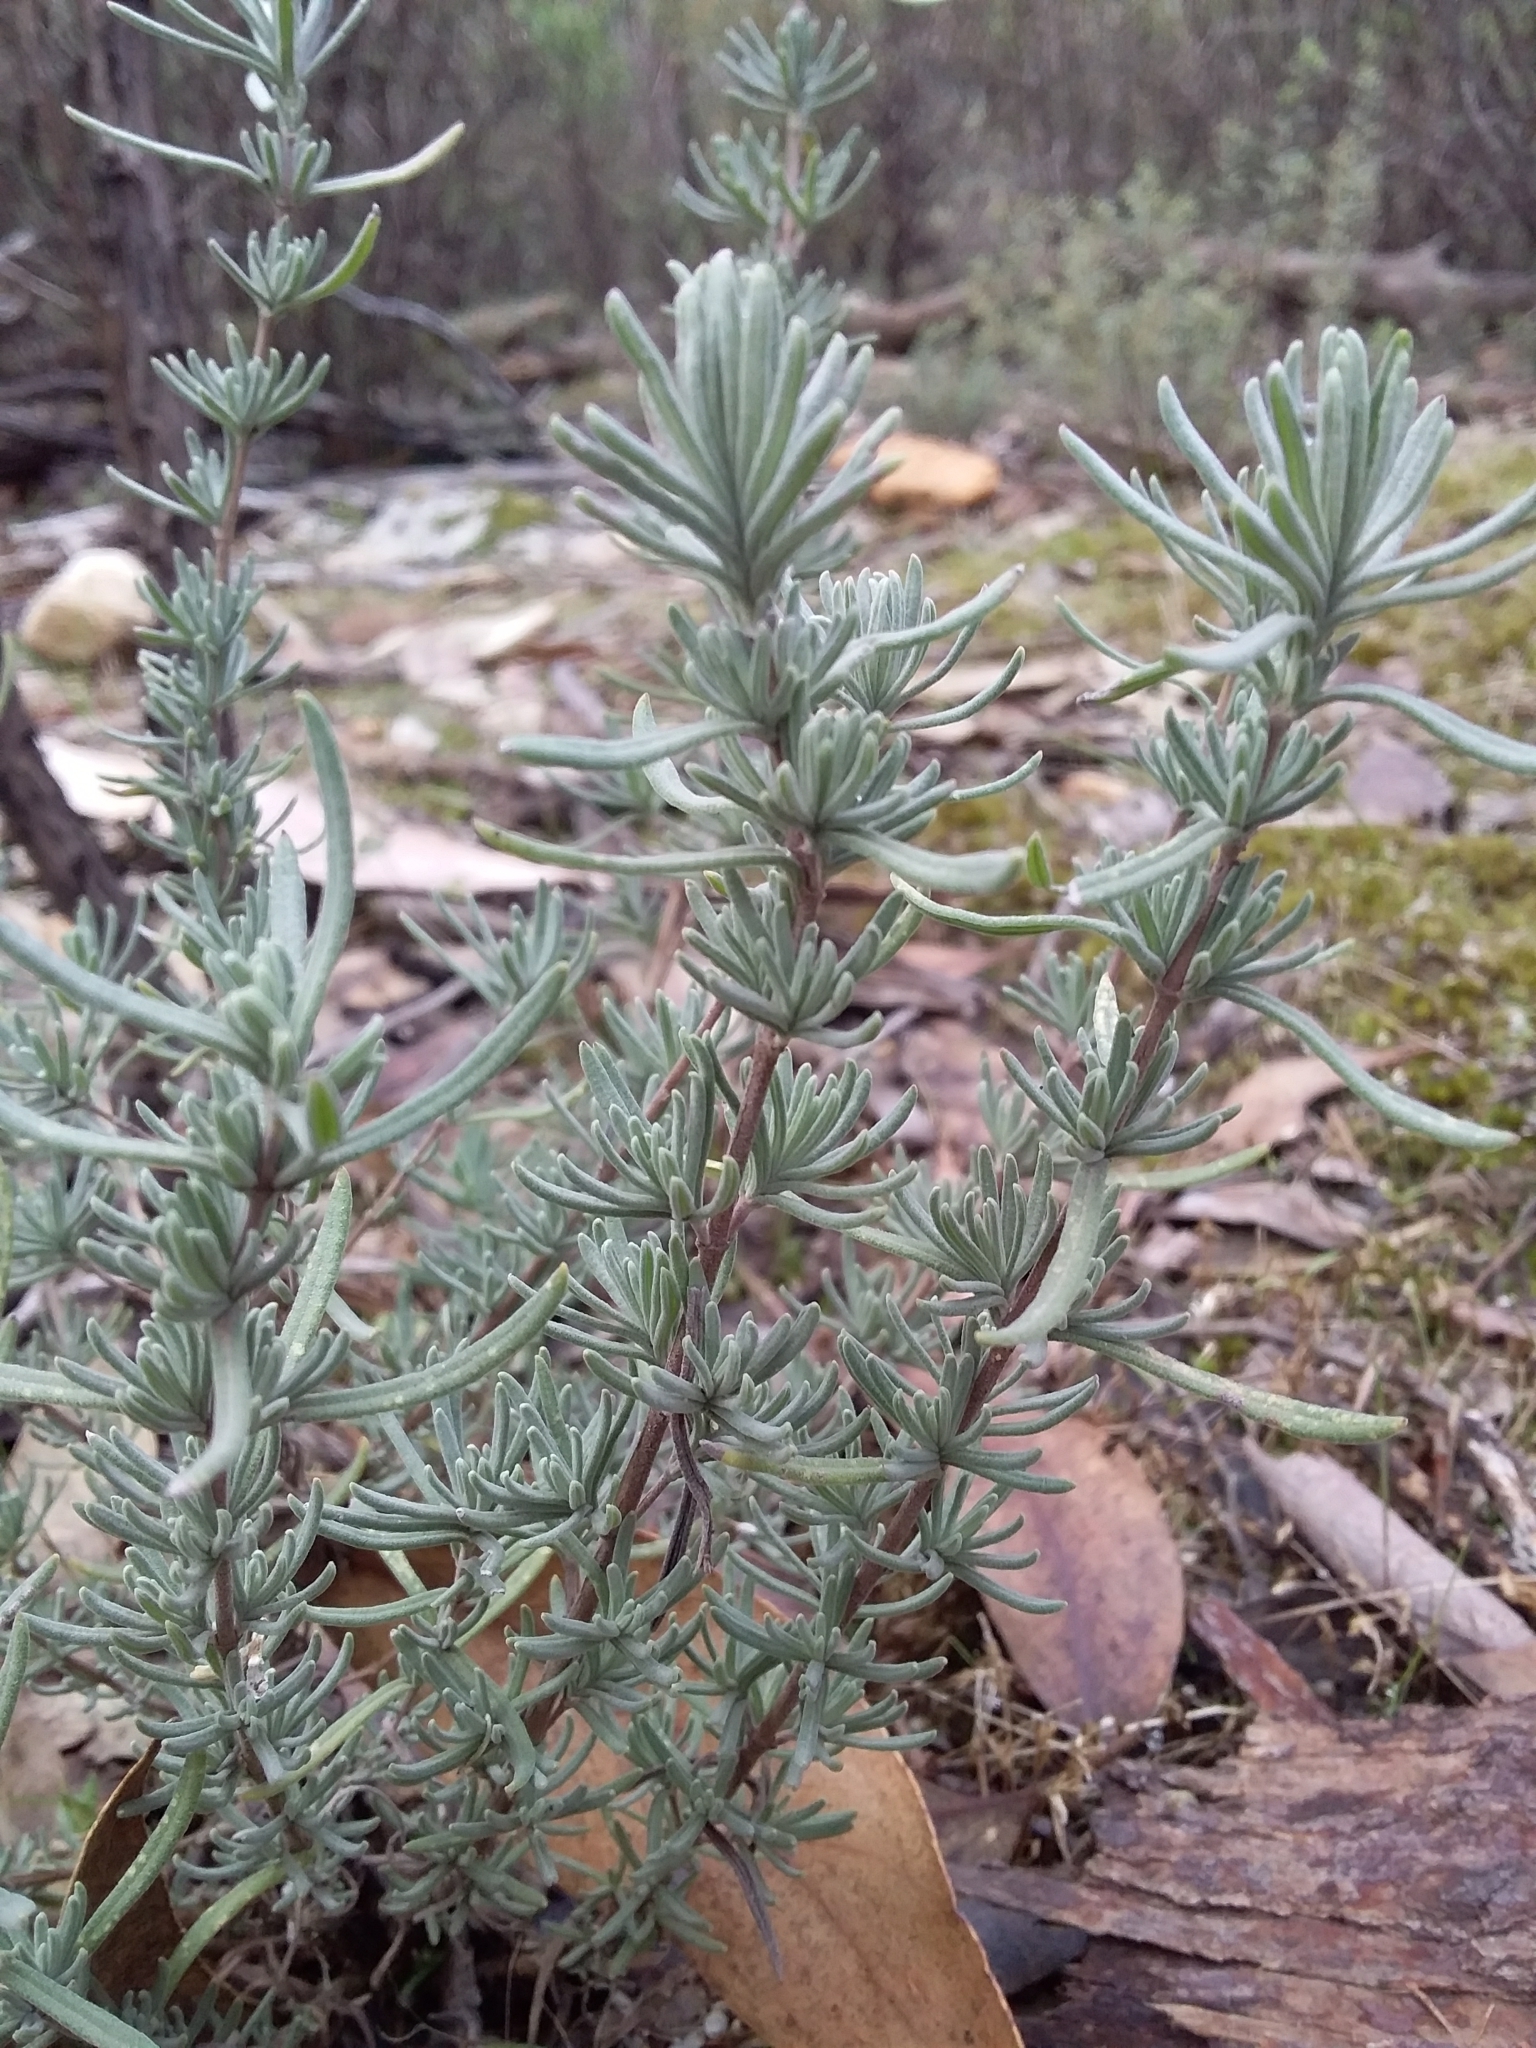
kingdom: Plantae
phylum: Tracheophyta
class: Magnoliopsida
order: Lamiales
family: Lamiaceae
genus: Lavandula
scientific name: Lavandula stoechas
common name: French lavender
